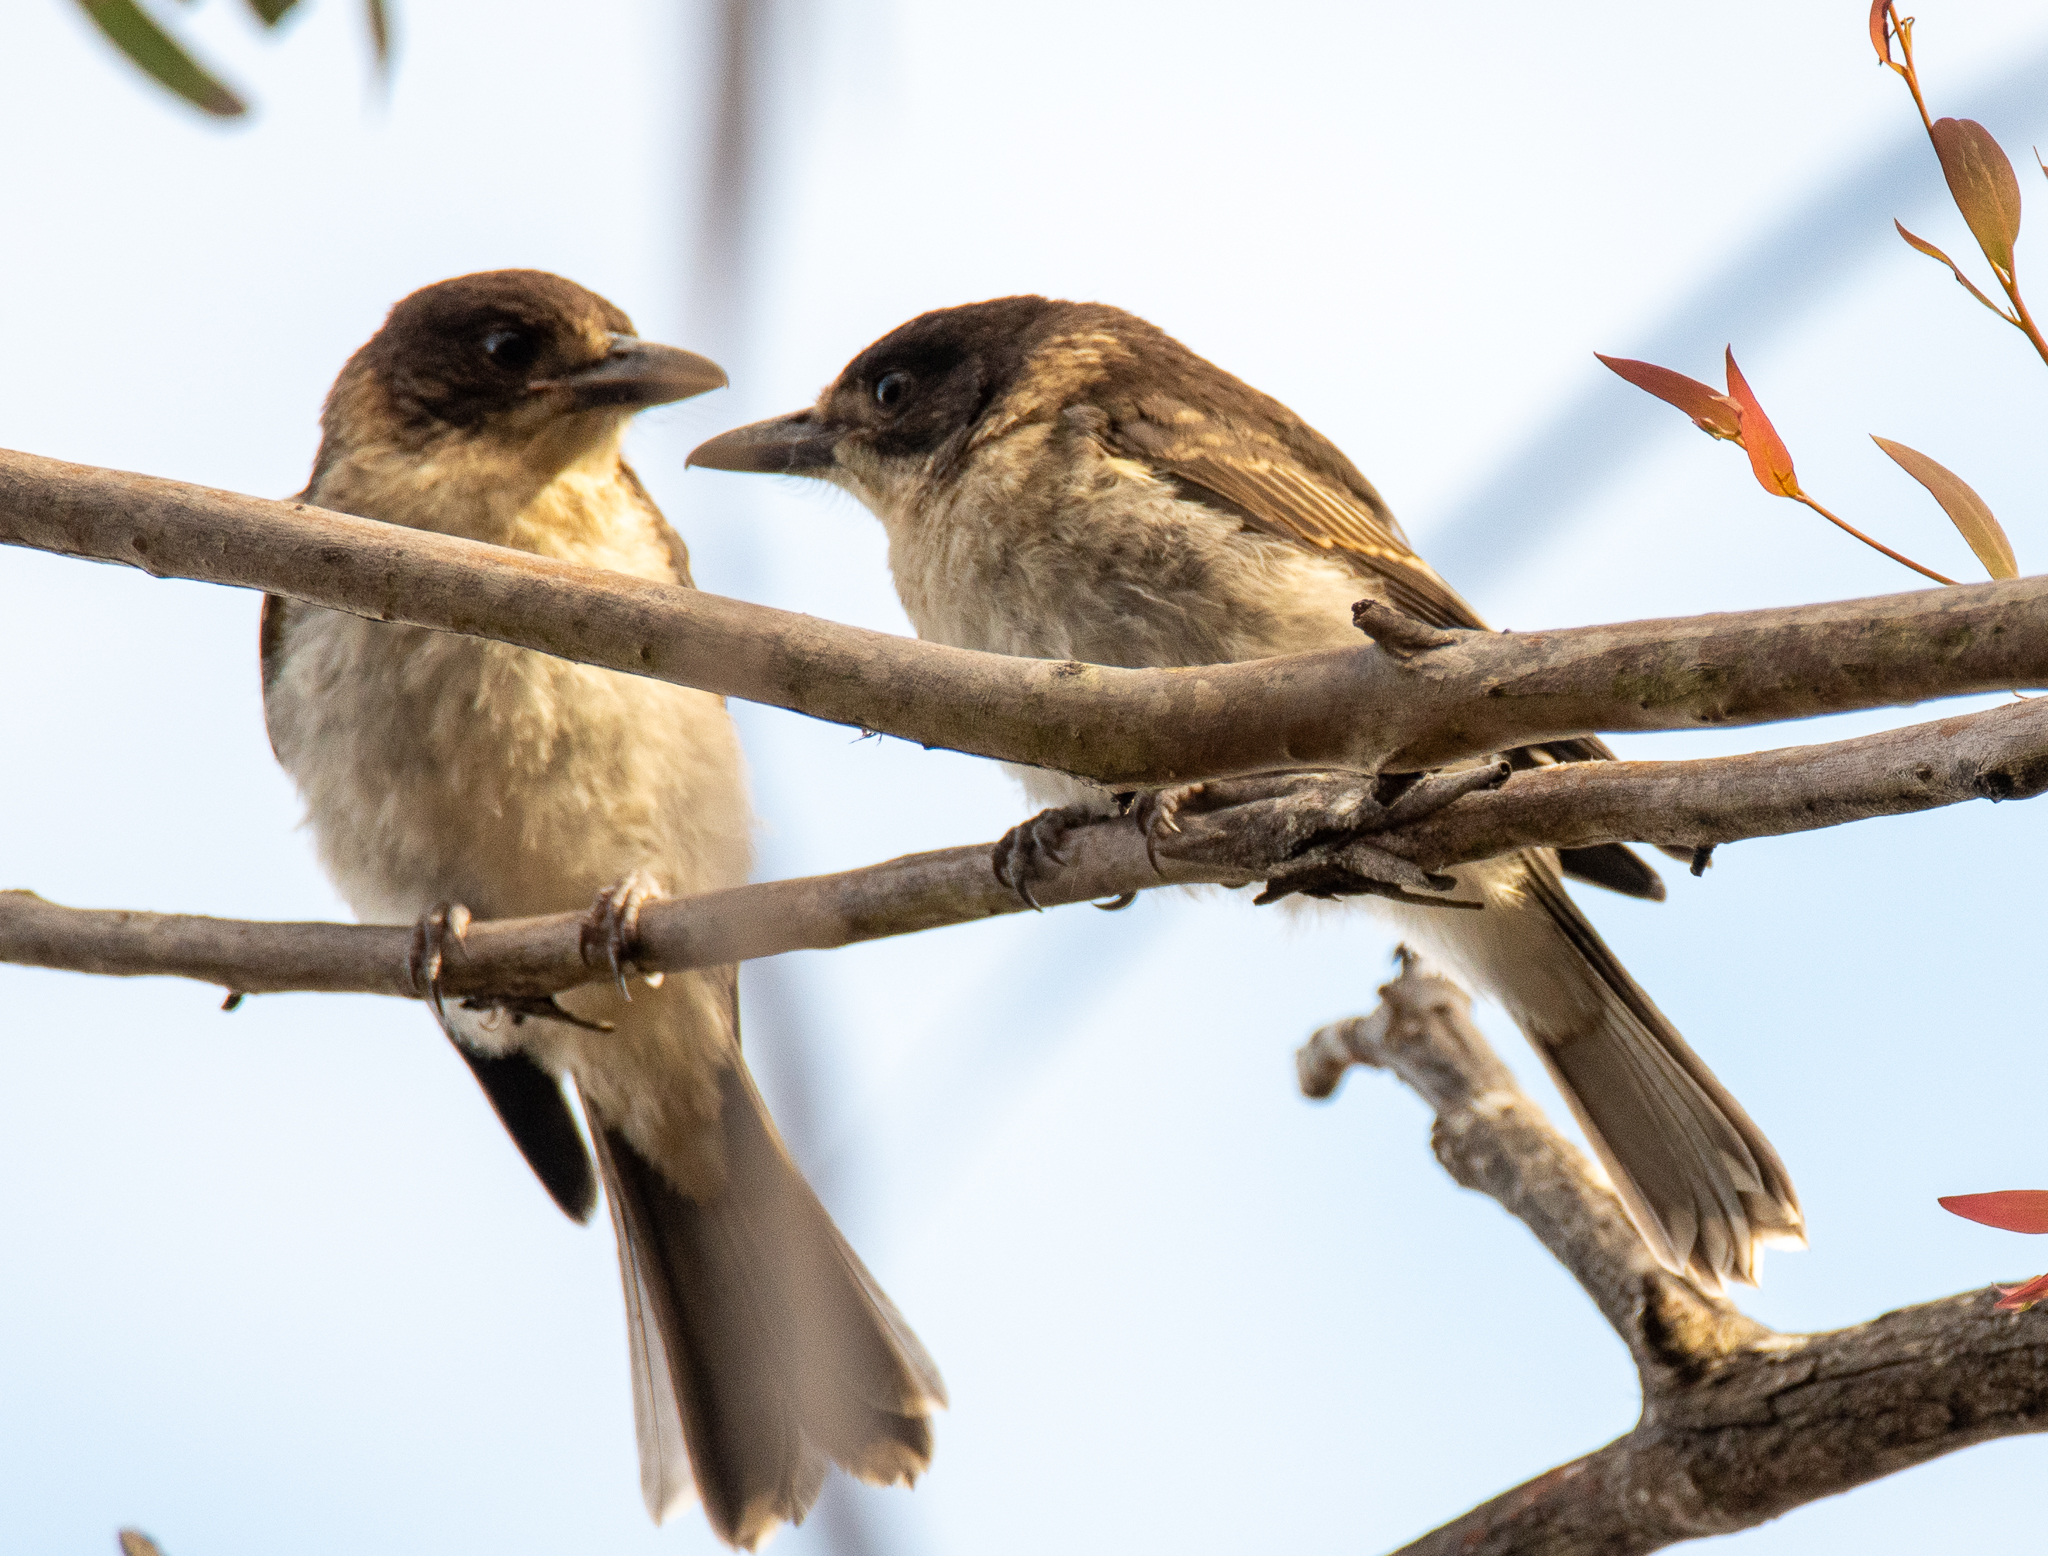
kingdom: Animalia
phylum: Chordata
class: Aves
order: Passeriformes
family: Cracticidae
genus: Cracticus
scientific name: Cracticus torquatus
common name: Grey butcherbird
